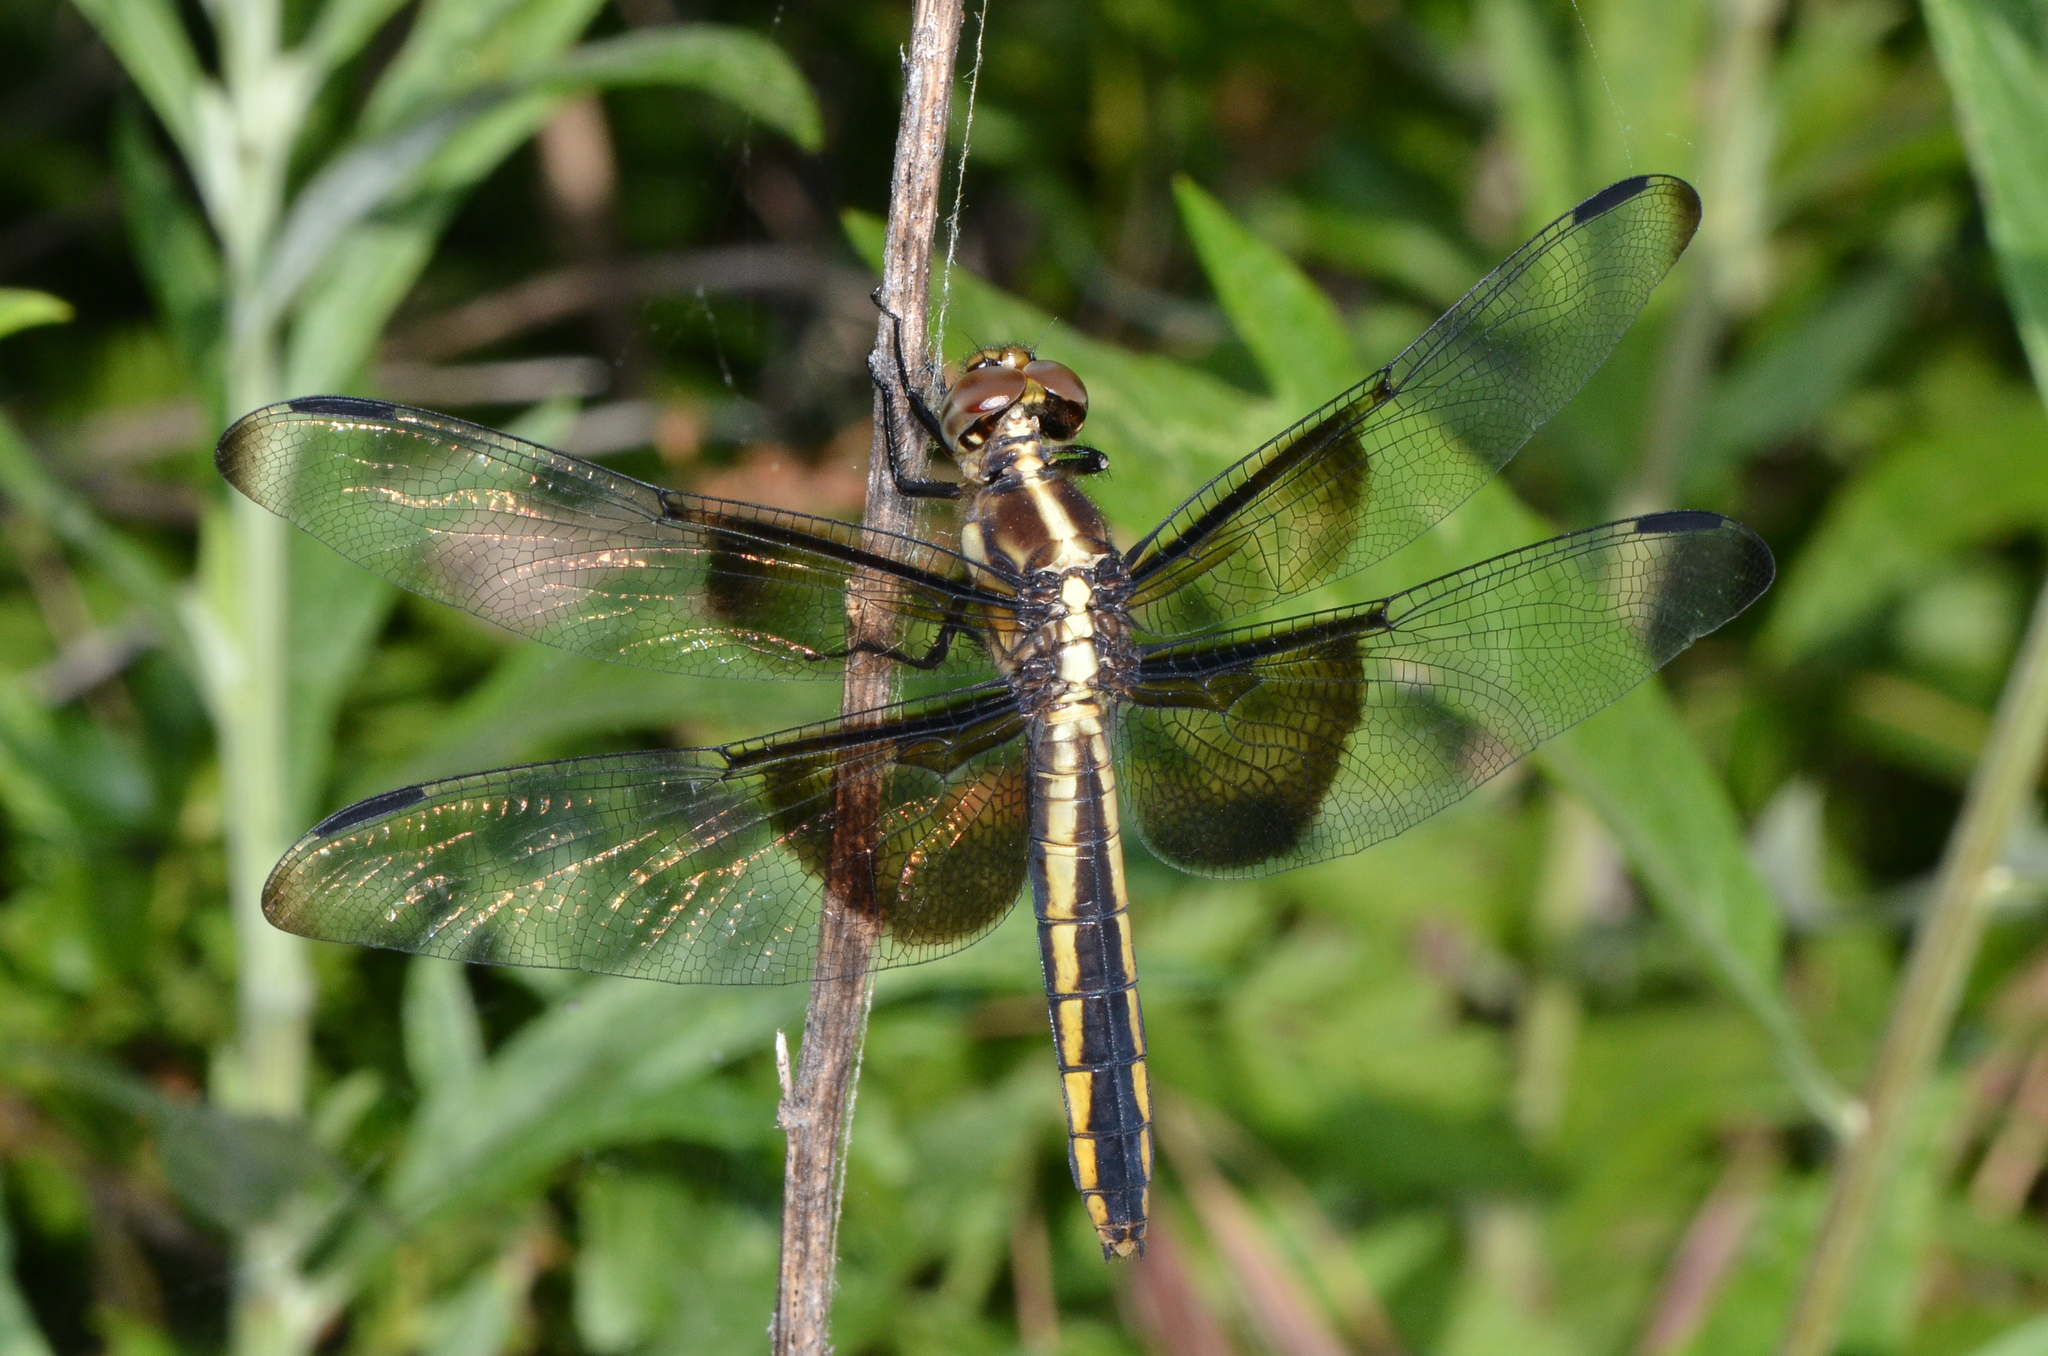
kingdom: Animalia
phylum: Arthropoda
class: Insecta
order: Odonata
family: Libellulidae
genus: Libellula
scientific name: Libellula luctuosa
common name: Widow skimmer
